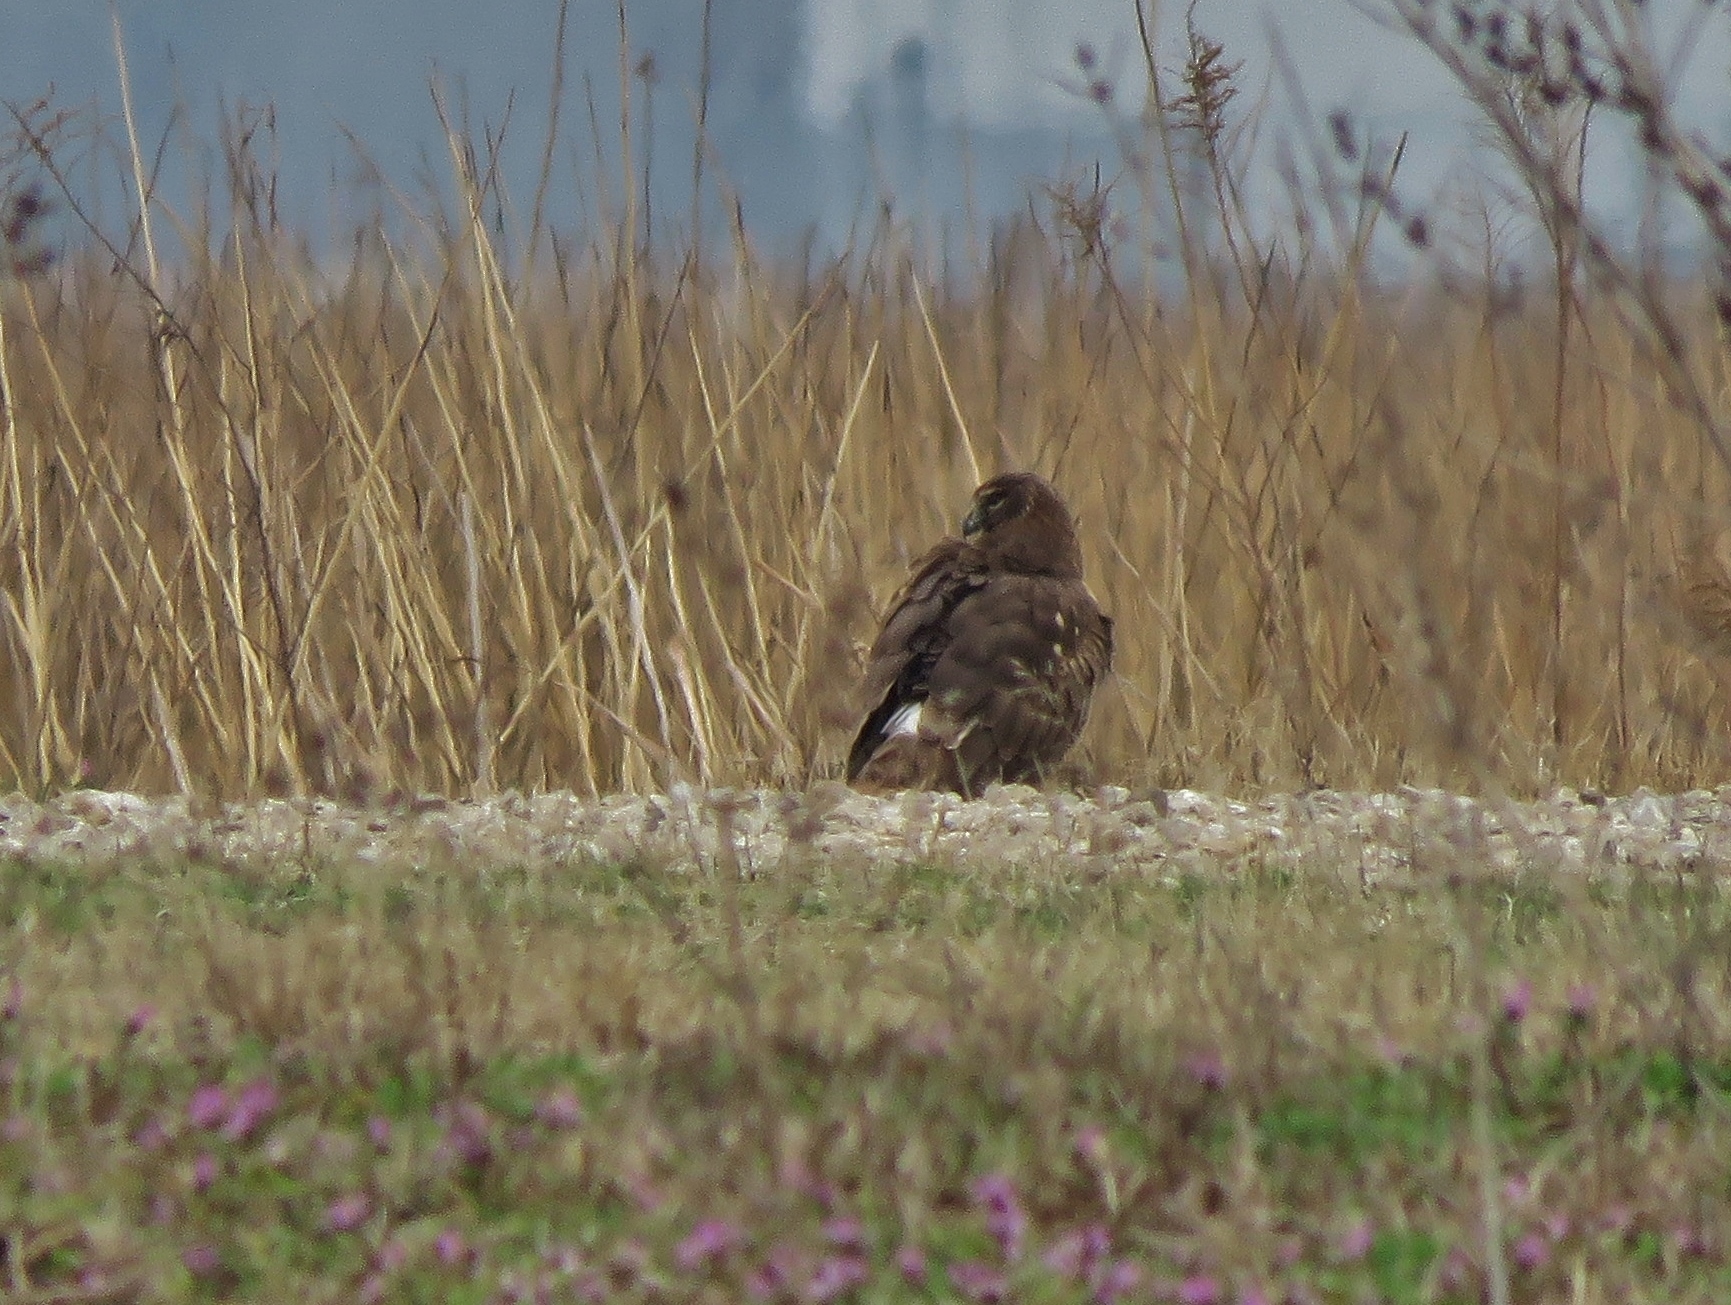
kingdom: Animalia
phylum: Chordata
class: Aves
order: Accipitriformes
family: Accipitridae
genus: Circus
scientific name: Circus cyaneus
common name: Hen harrier
